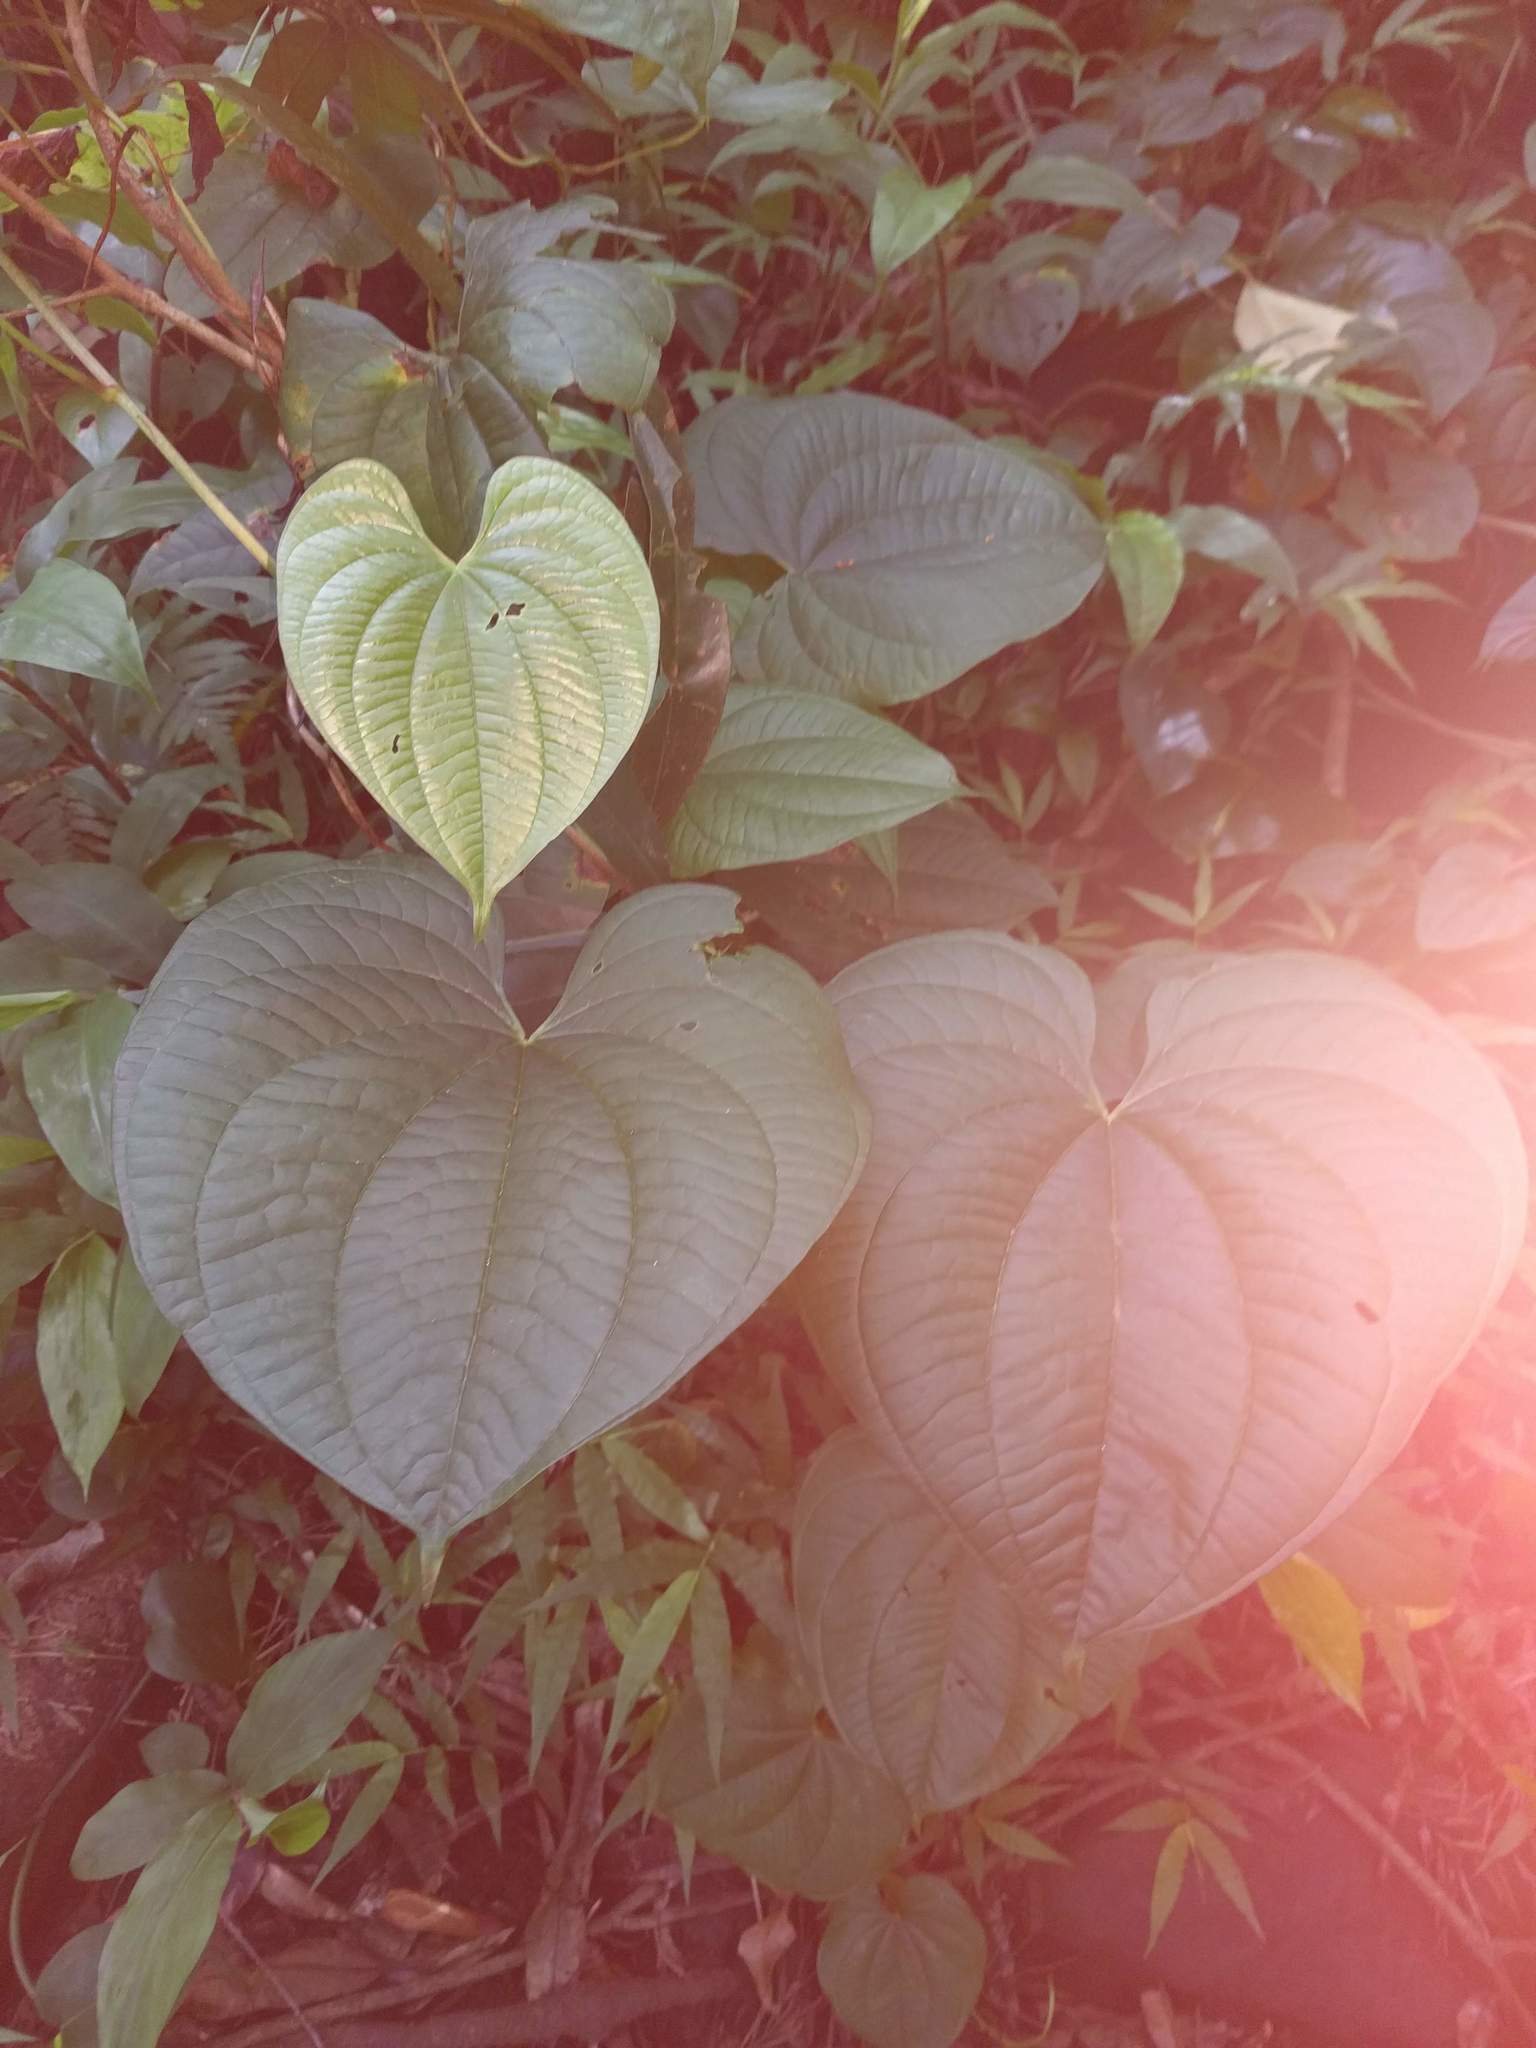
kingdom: Plantae
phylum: Tracheophyta
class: Liliopsida
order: Dioscoreales
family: Dioscoreaceae
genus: Dioscorea
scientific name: Dioscorea bulbifera
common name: Air yam
